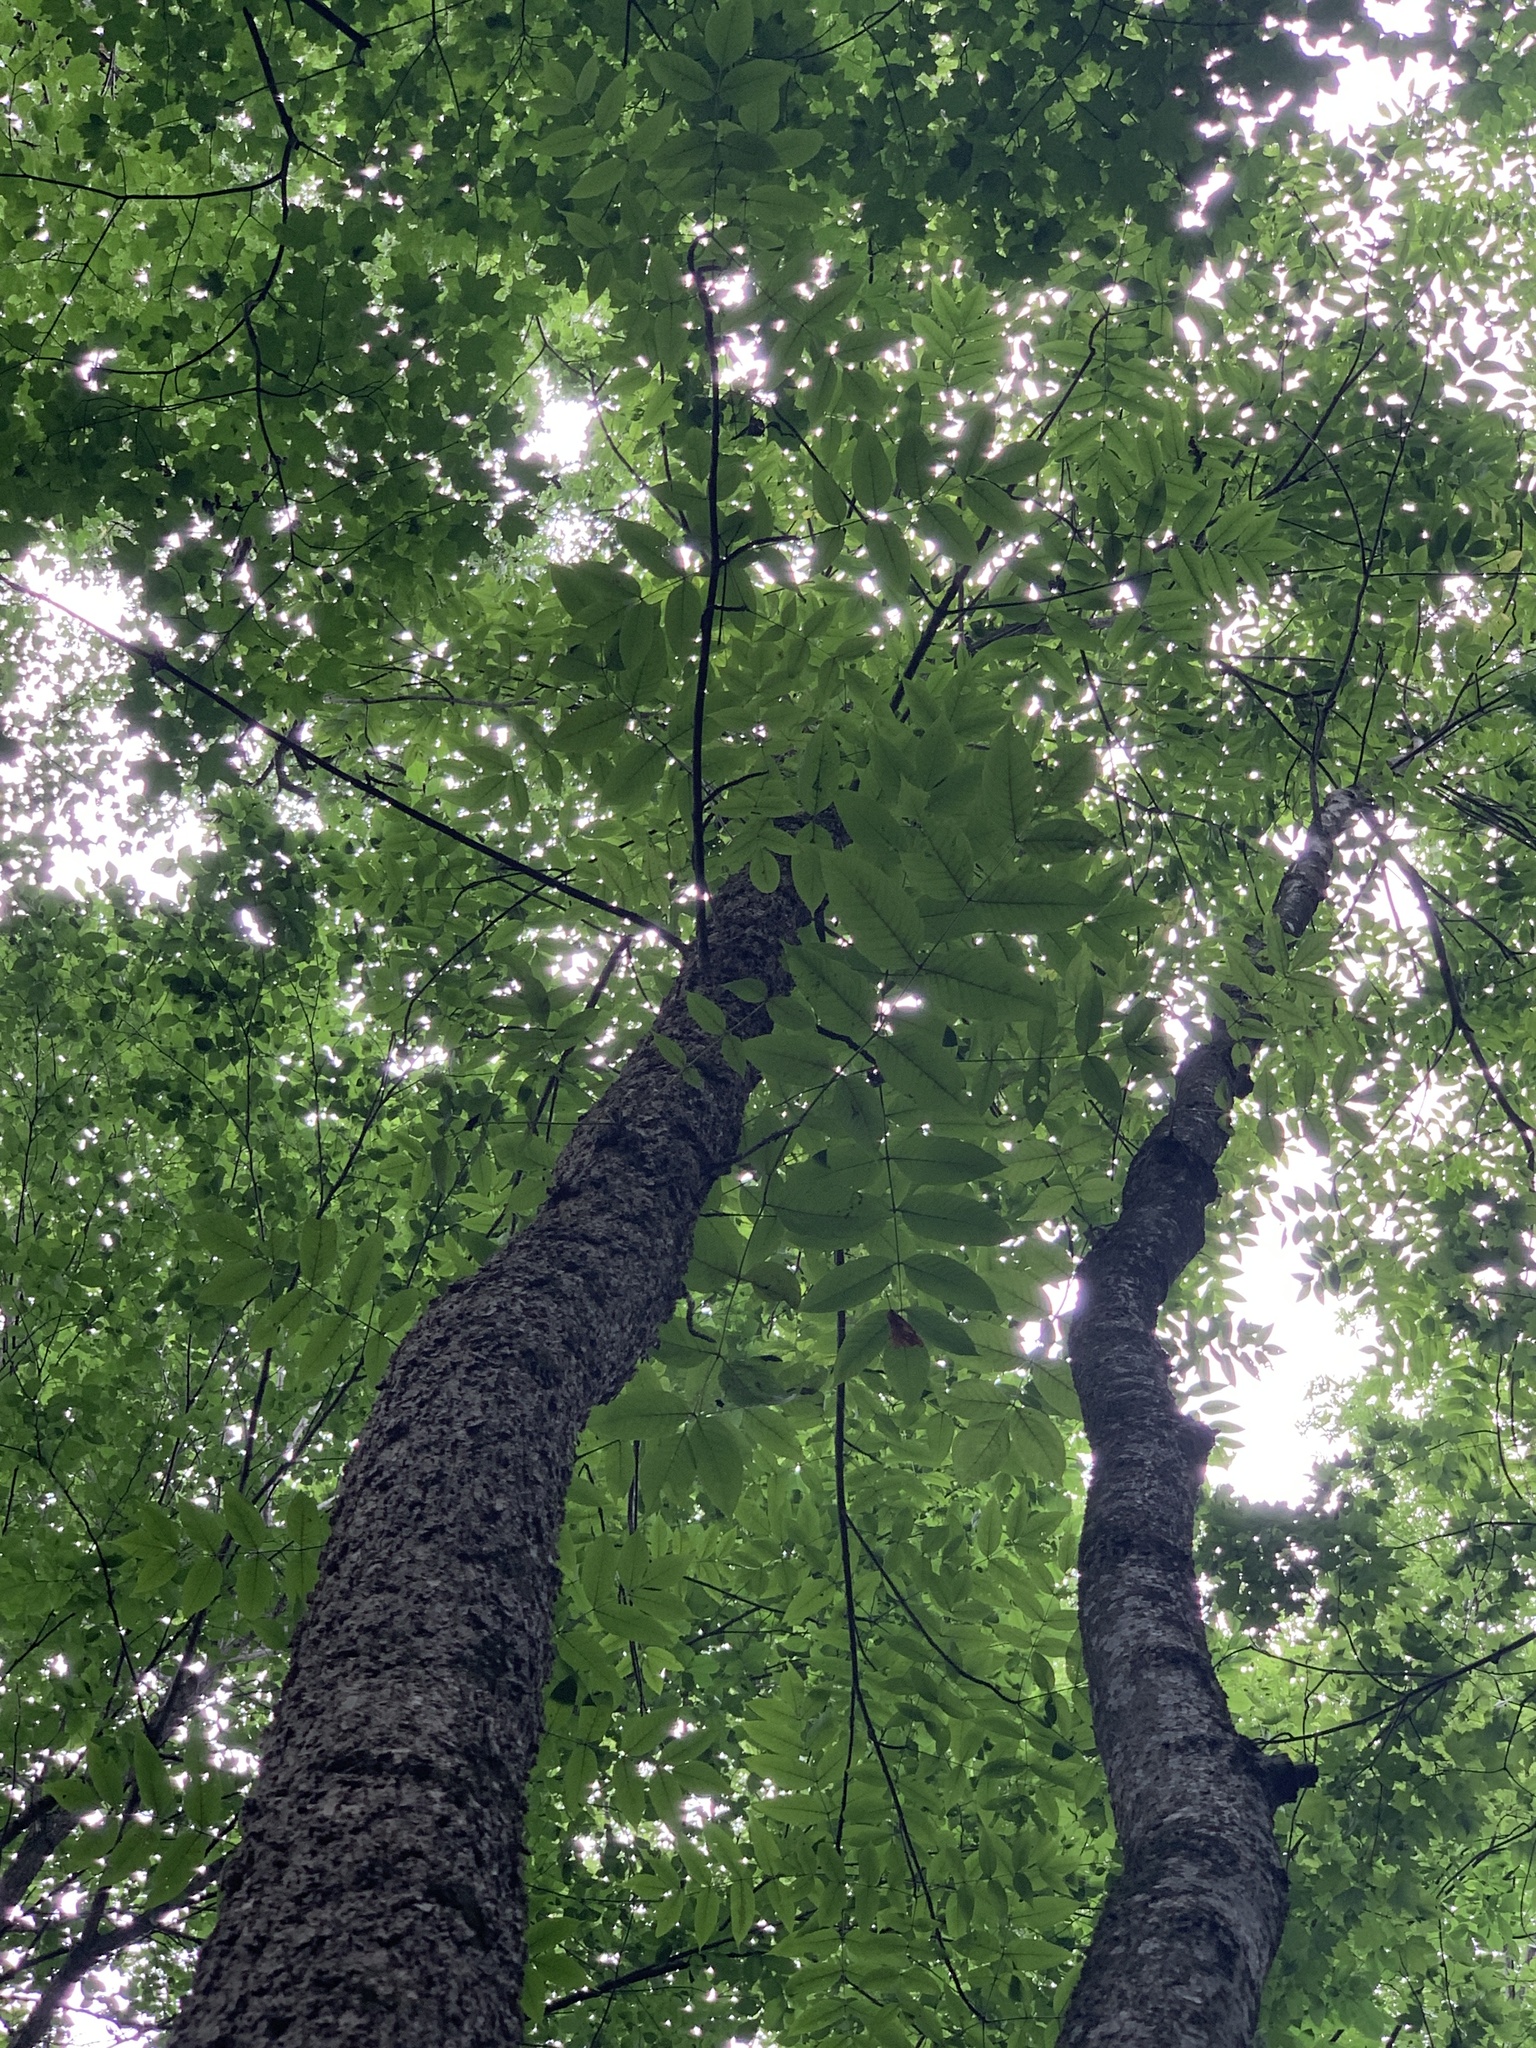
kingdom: Plantae
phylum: Tracheophyta
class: Magnoliopsida
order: Lamiales
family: Oleaceae
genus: Fraxinus
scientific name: Fraxinus nigra
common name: Black ash
